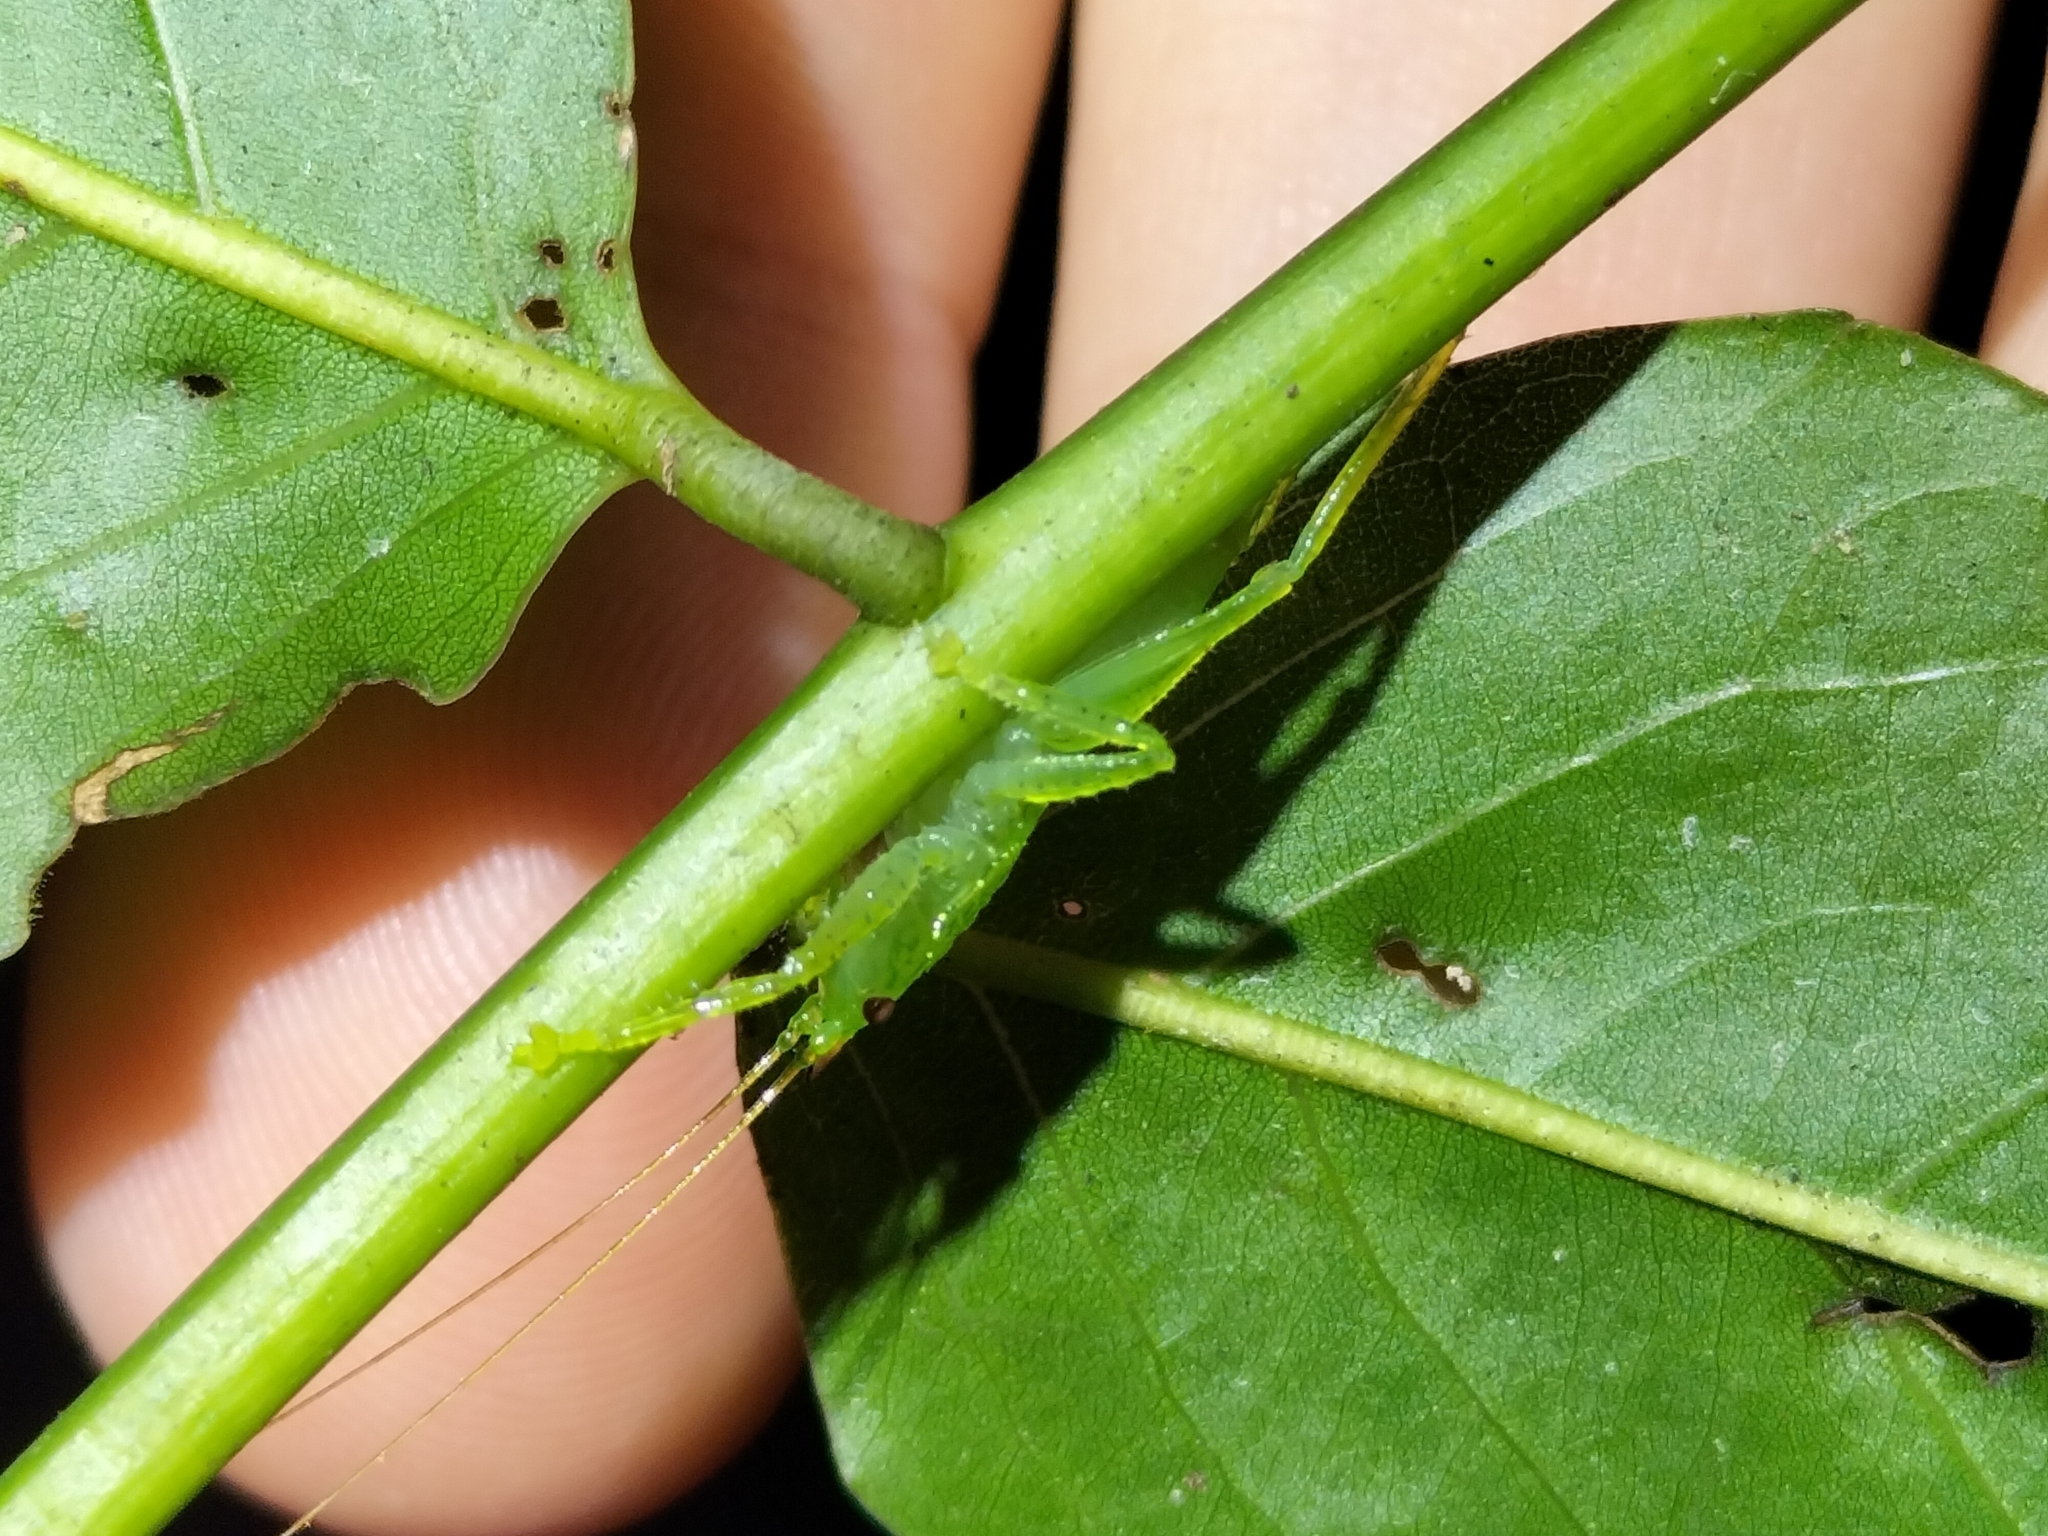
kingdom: Animalia
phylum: Arthropoda
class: Insecta
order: Orthoptera
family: Tettigoniidae
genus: Emeraldagraecia
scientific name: Emeraldagraecia munggarifrons
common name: Pink-faced emerald
